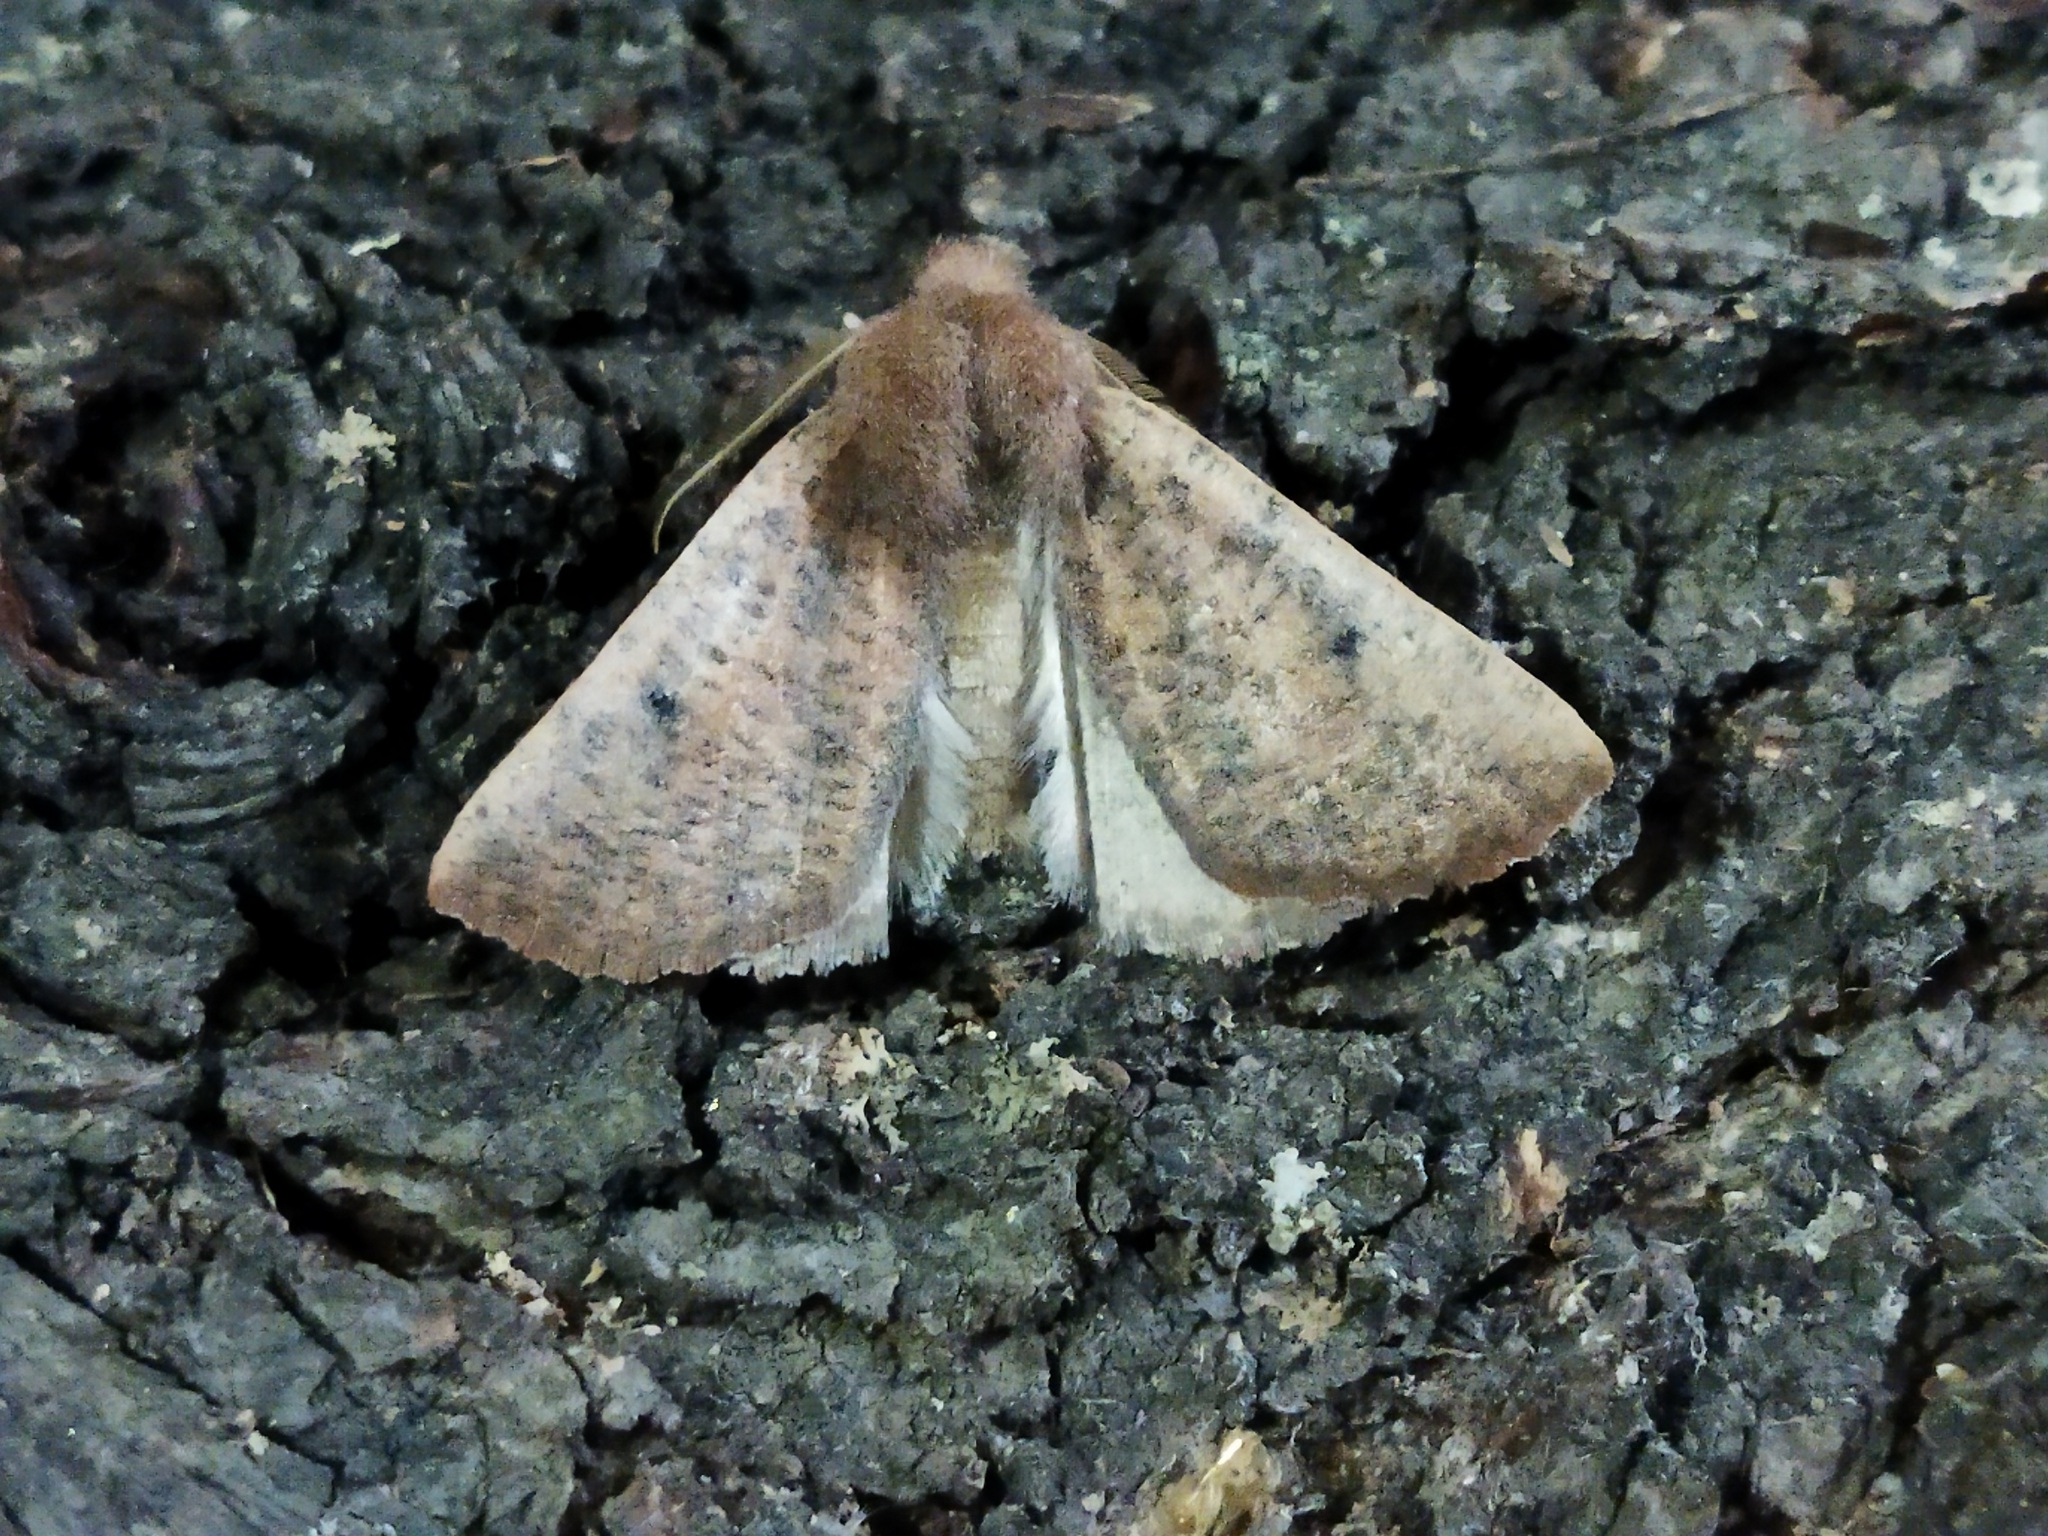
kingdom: Animalia
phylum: Arthropoda
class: Insecta
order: Lepidoptera
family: Geometridae
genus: Dasycorsa
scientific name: Dasycorsa modesta
